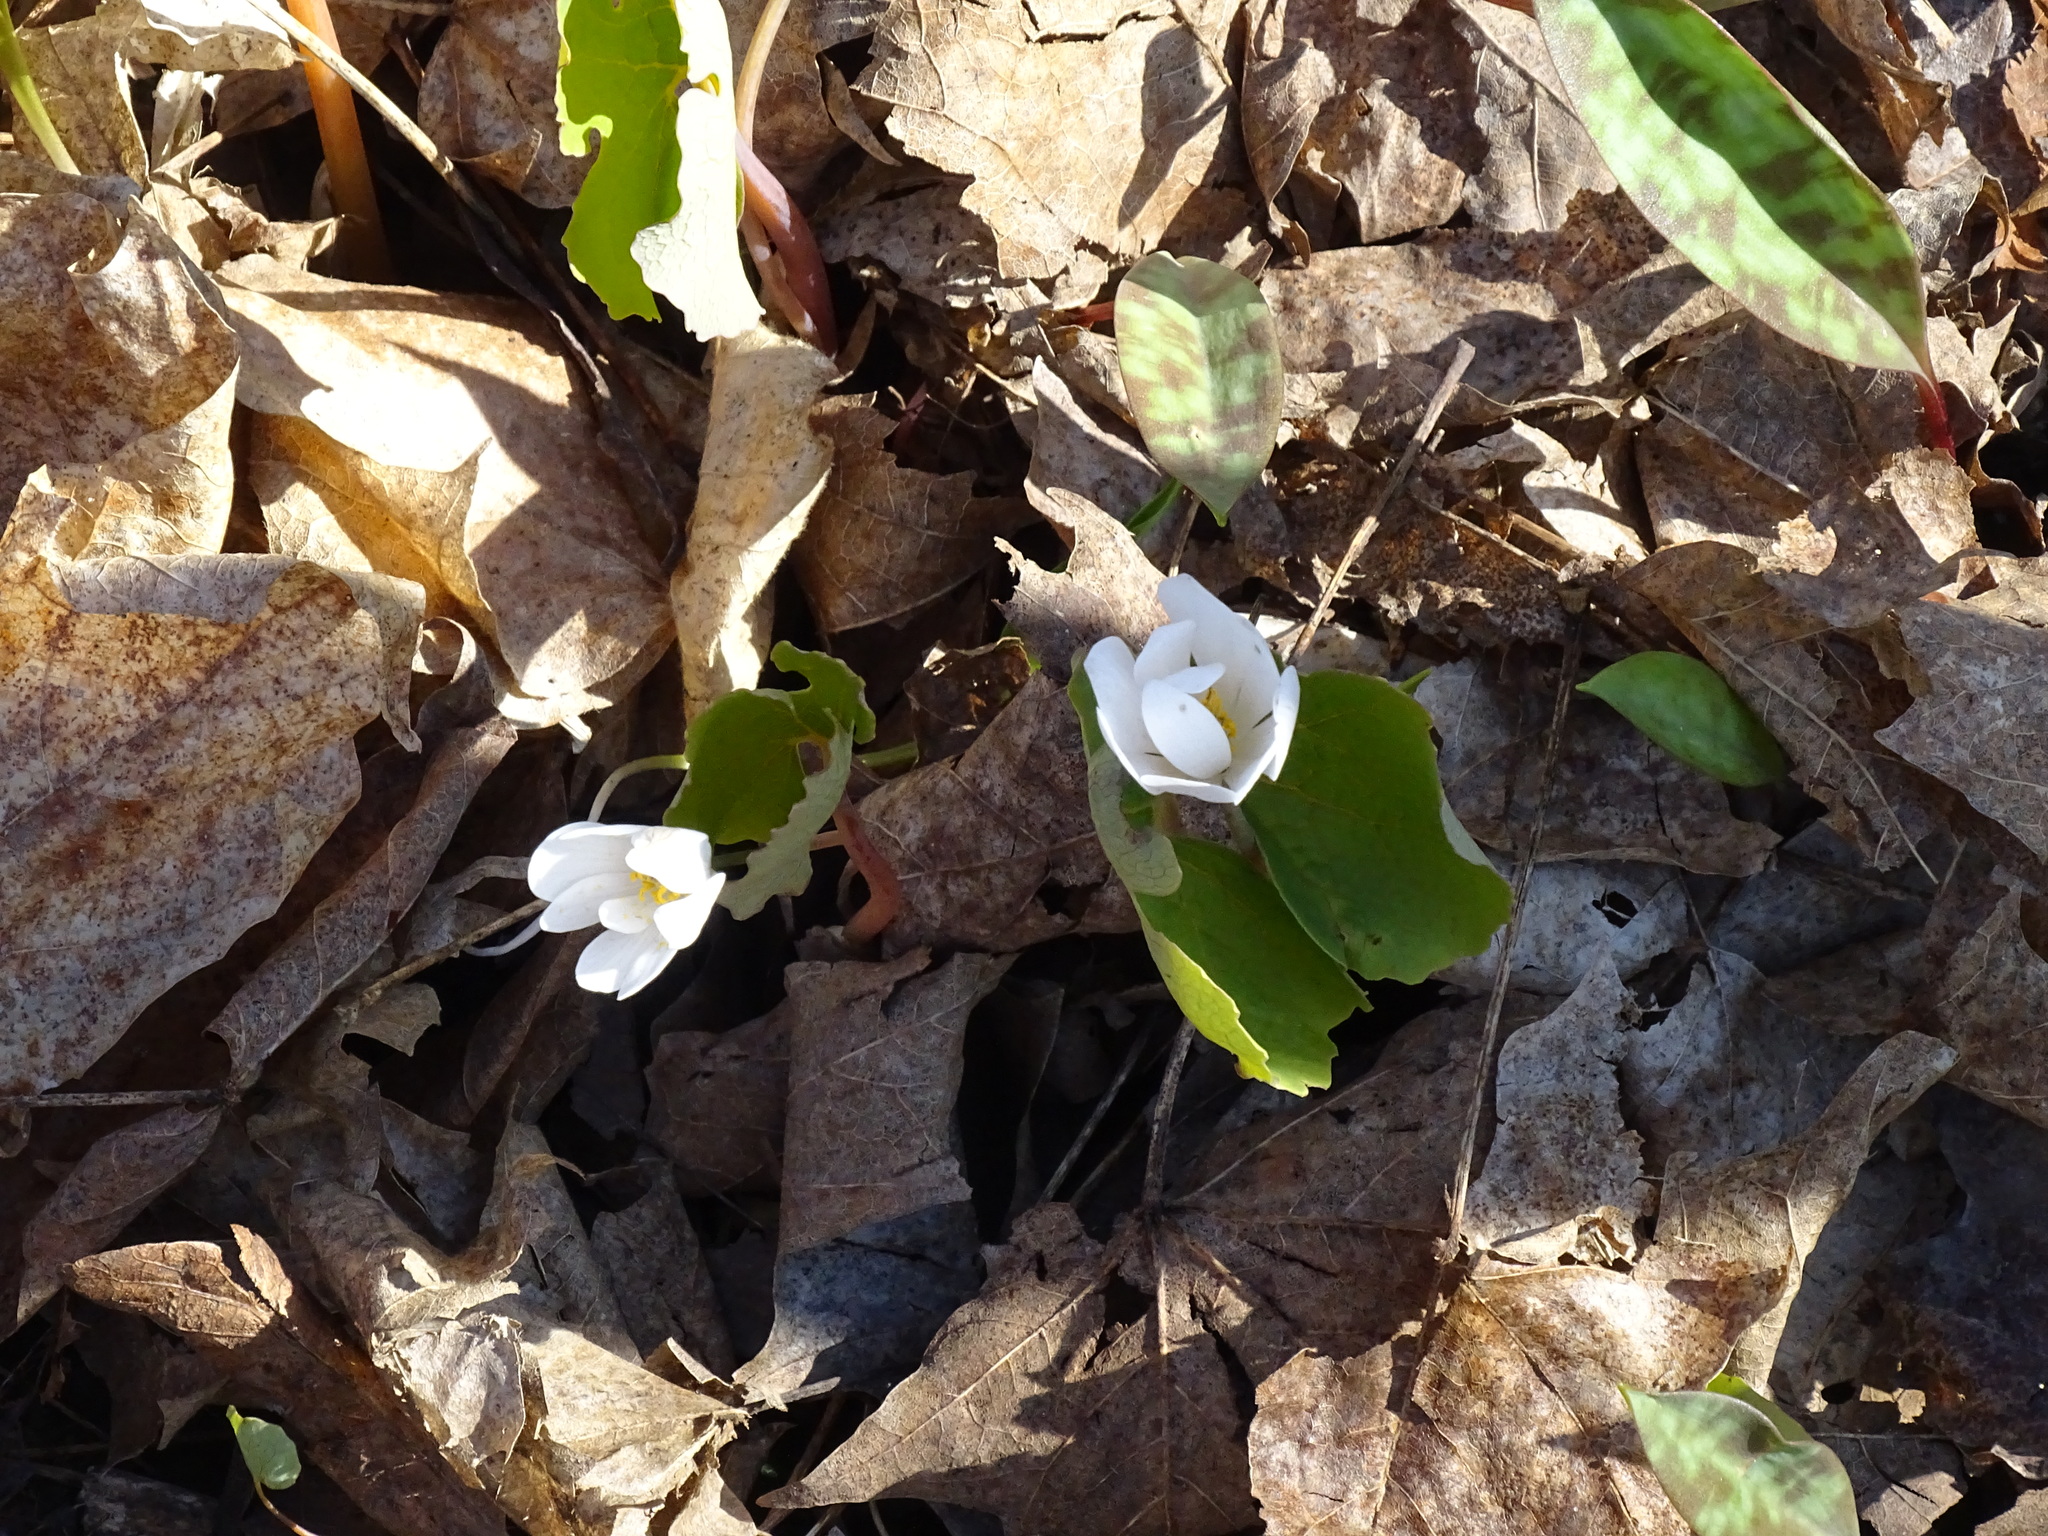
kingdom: Plantae
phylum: Tracheophyta
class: Magnoliopsida
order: Ranunculales
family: Papaveraceae
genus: Sanguinaria
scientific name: Sanguinaria canadensis
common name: Bloodroot
